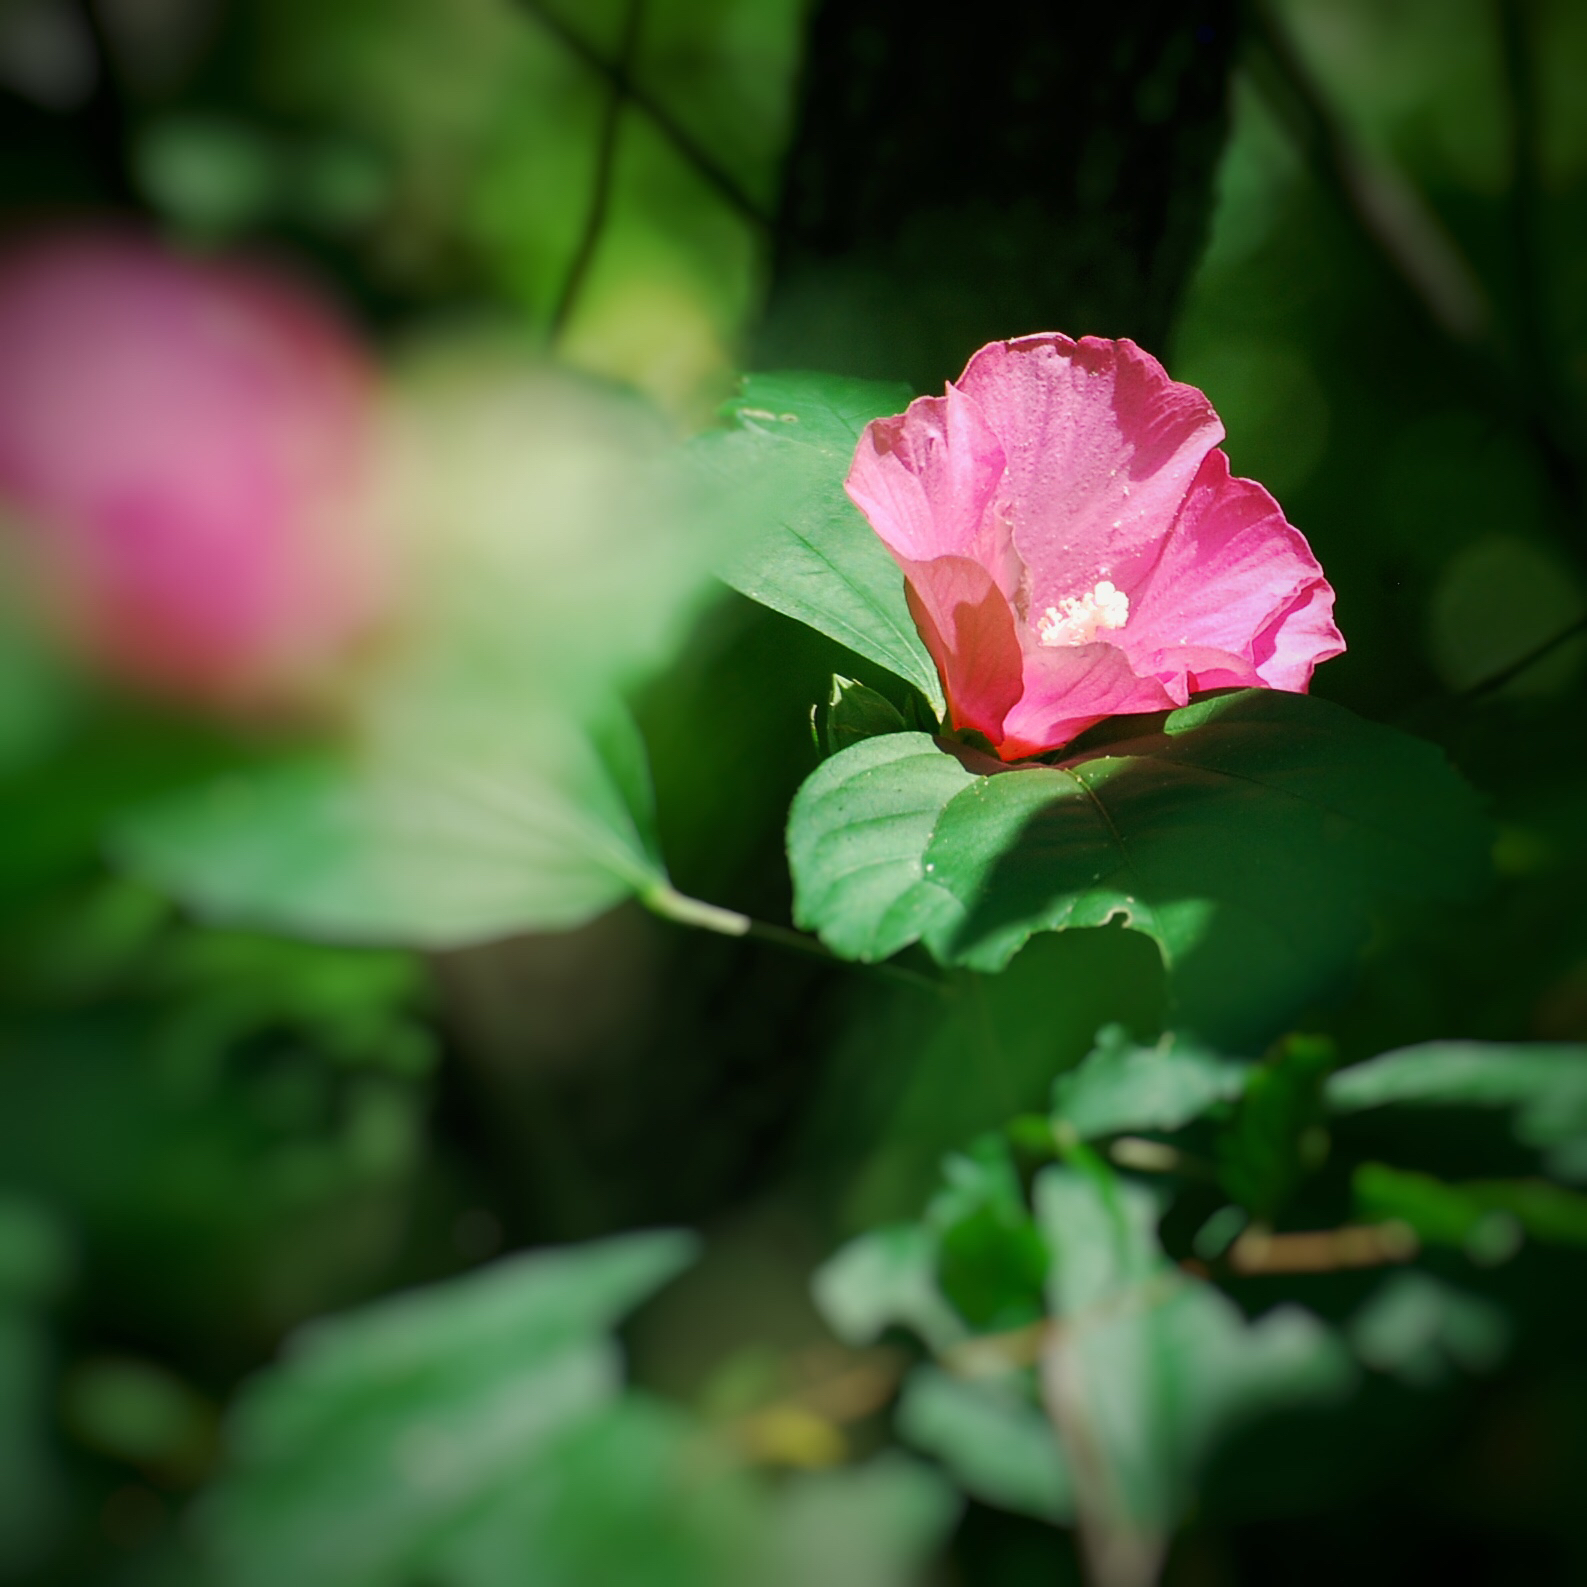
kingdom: Plantae
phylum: Tracheophyta
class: Magnoliopsida
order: Malvales
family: Malvaceae
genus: Hibiscus
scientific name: Hibiscus syriacus
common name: Syrian ketmia
